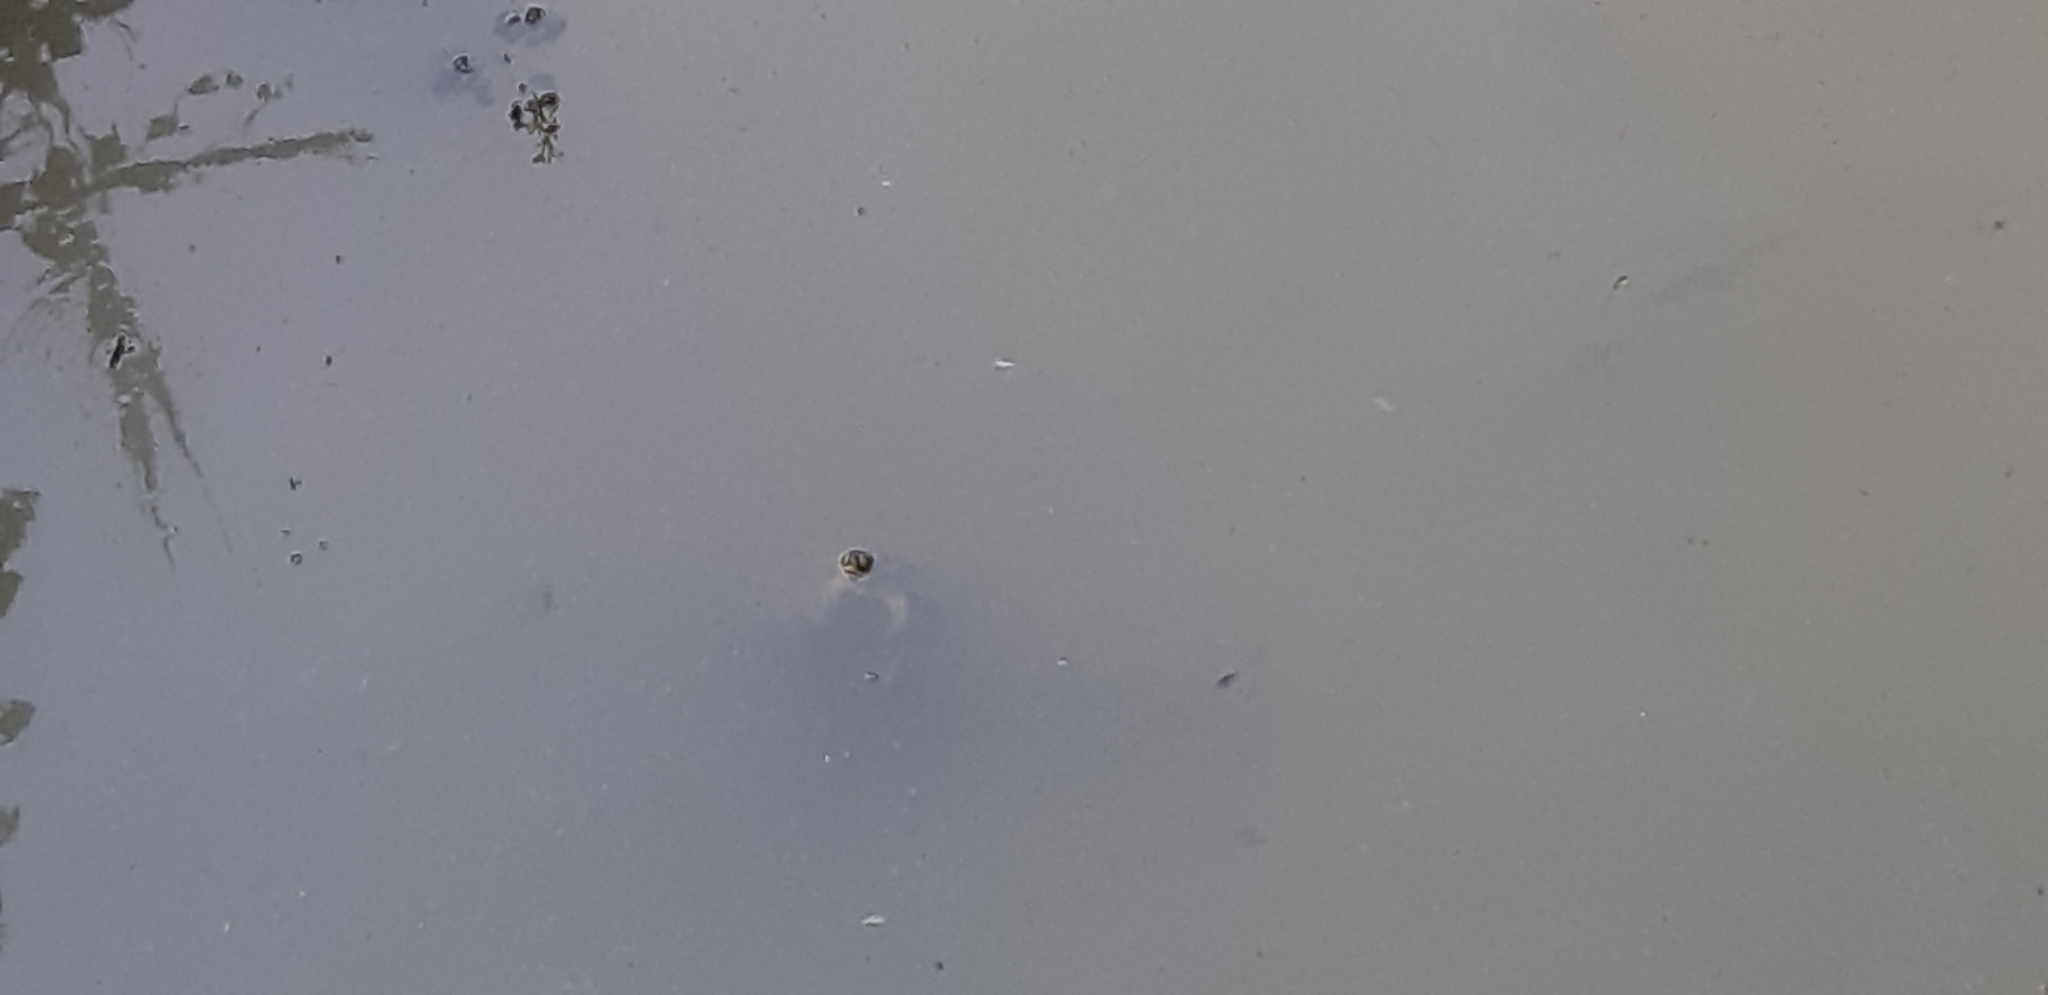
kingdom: Animalia
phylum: Chordata
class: Testudines
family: Emydidae
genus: Emys
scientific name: Emys orbicularis
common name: European pond turtle
